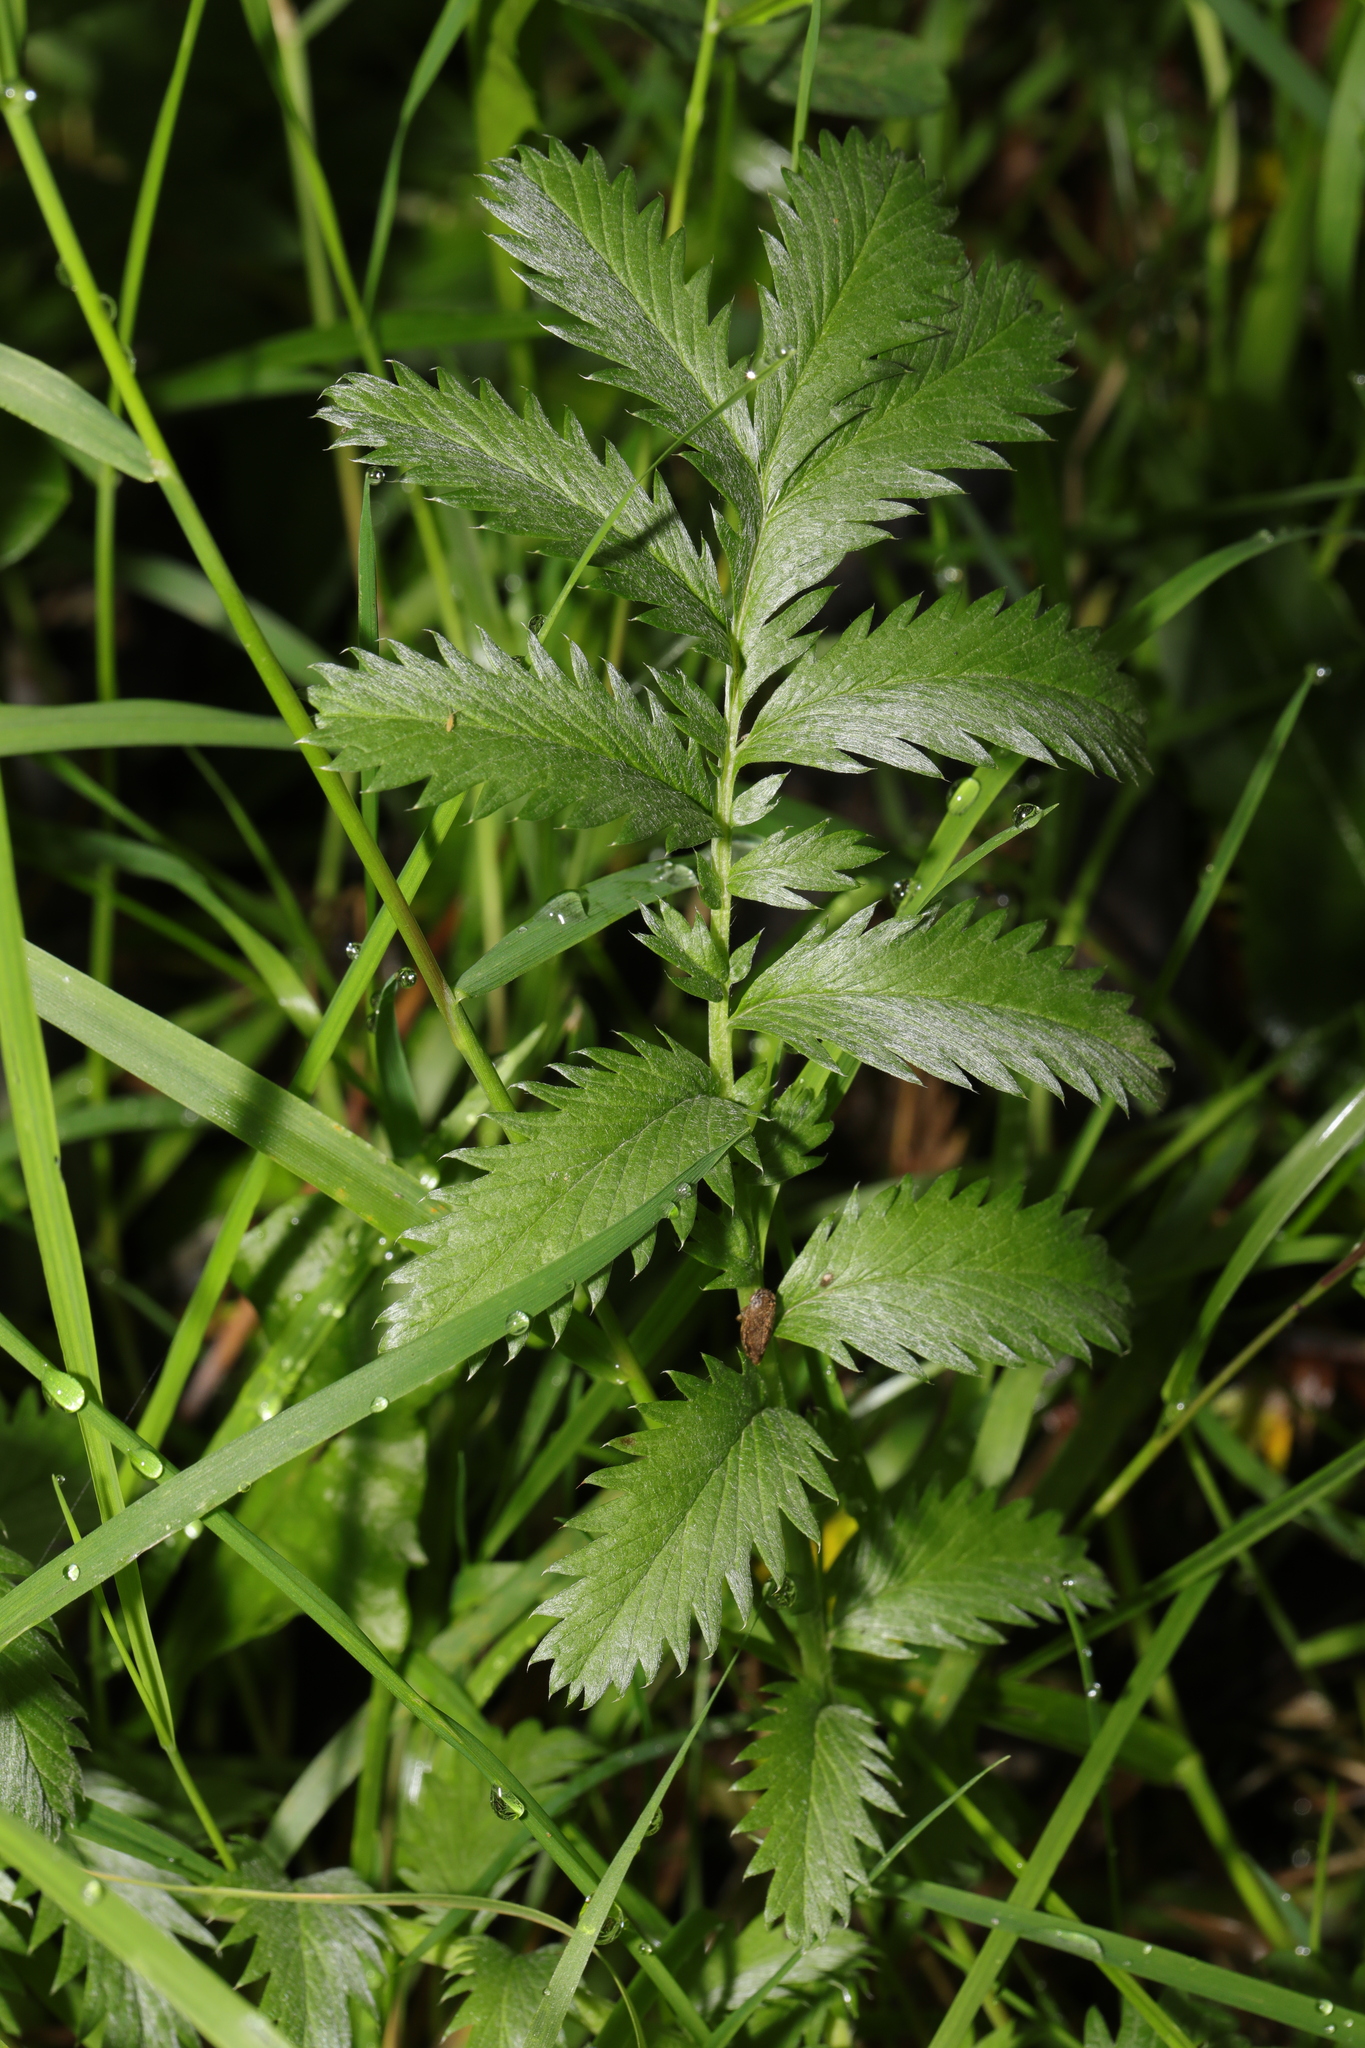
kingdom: Plantae
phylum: Tracheophyta
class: Magnoliopsida
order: Rosales
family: Rosaceae
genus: Argentina
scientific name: Argentina anserina
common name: Common silverweed
